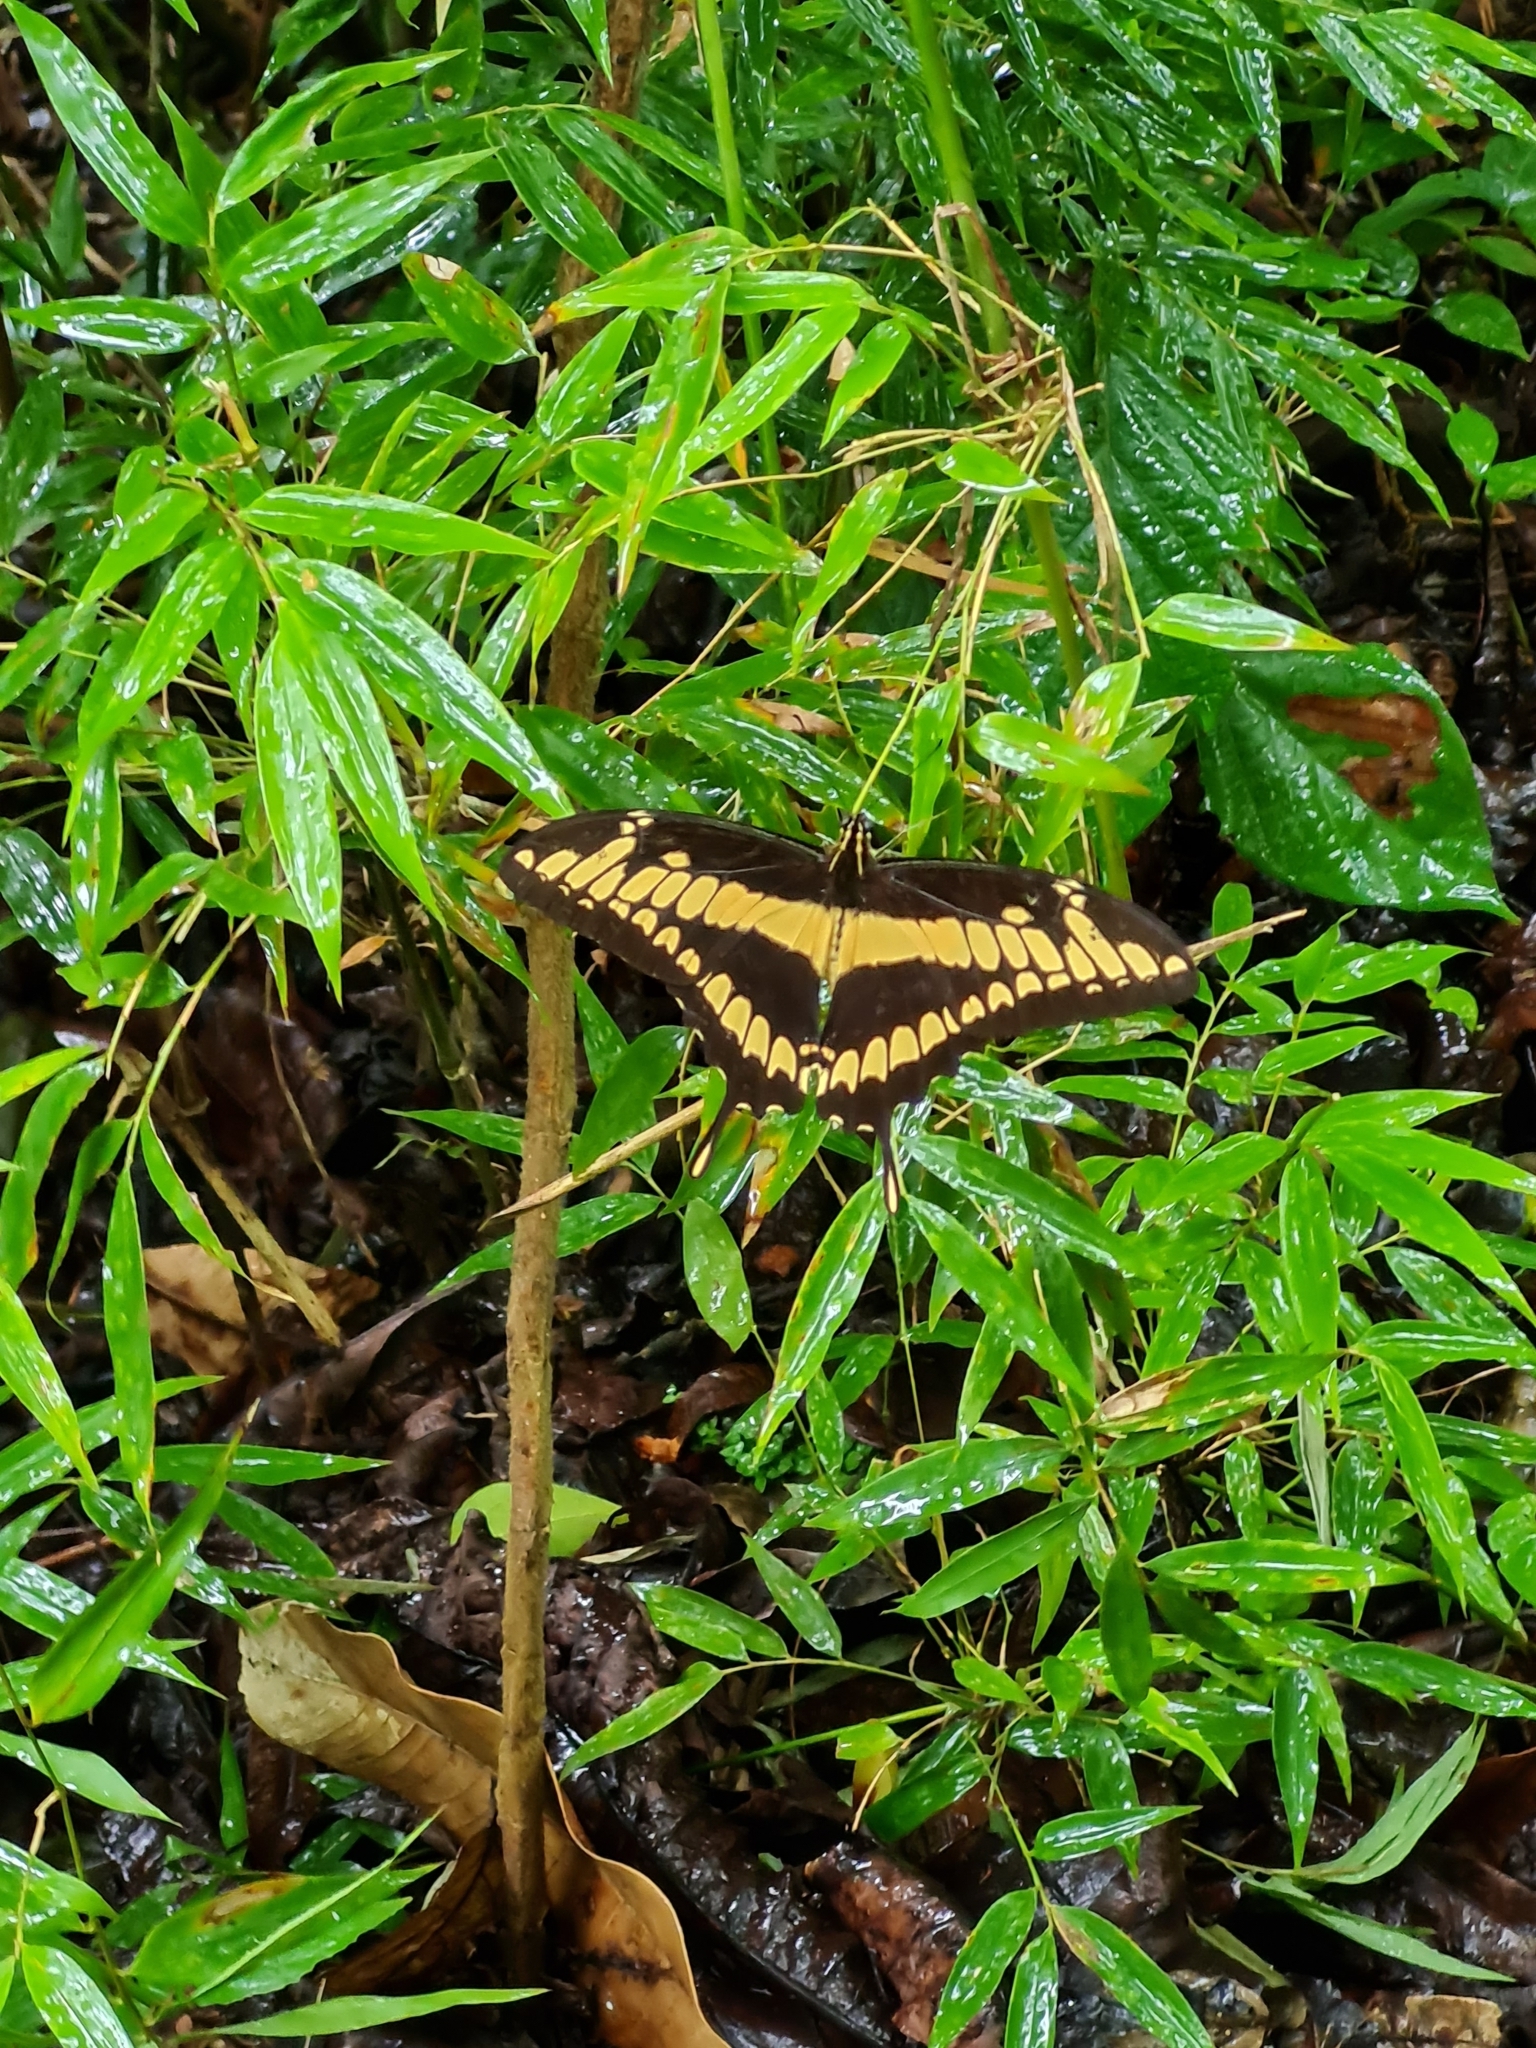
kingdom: Animalia
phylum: Arthropoda
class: Insecta
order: Lepidoptera
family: Papilionidae
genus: Papilio
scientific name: Papilio thoas
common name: King swallowtail
